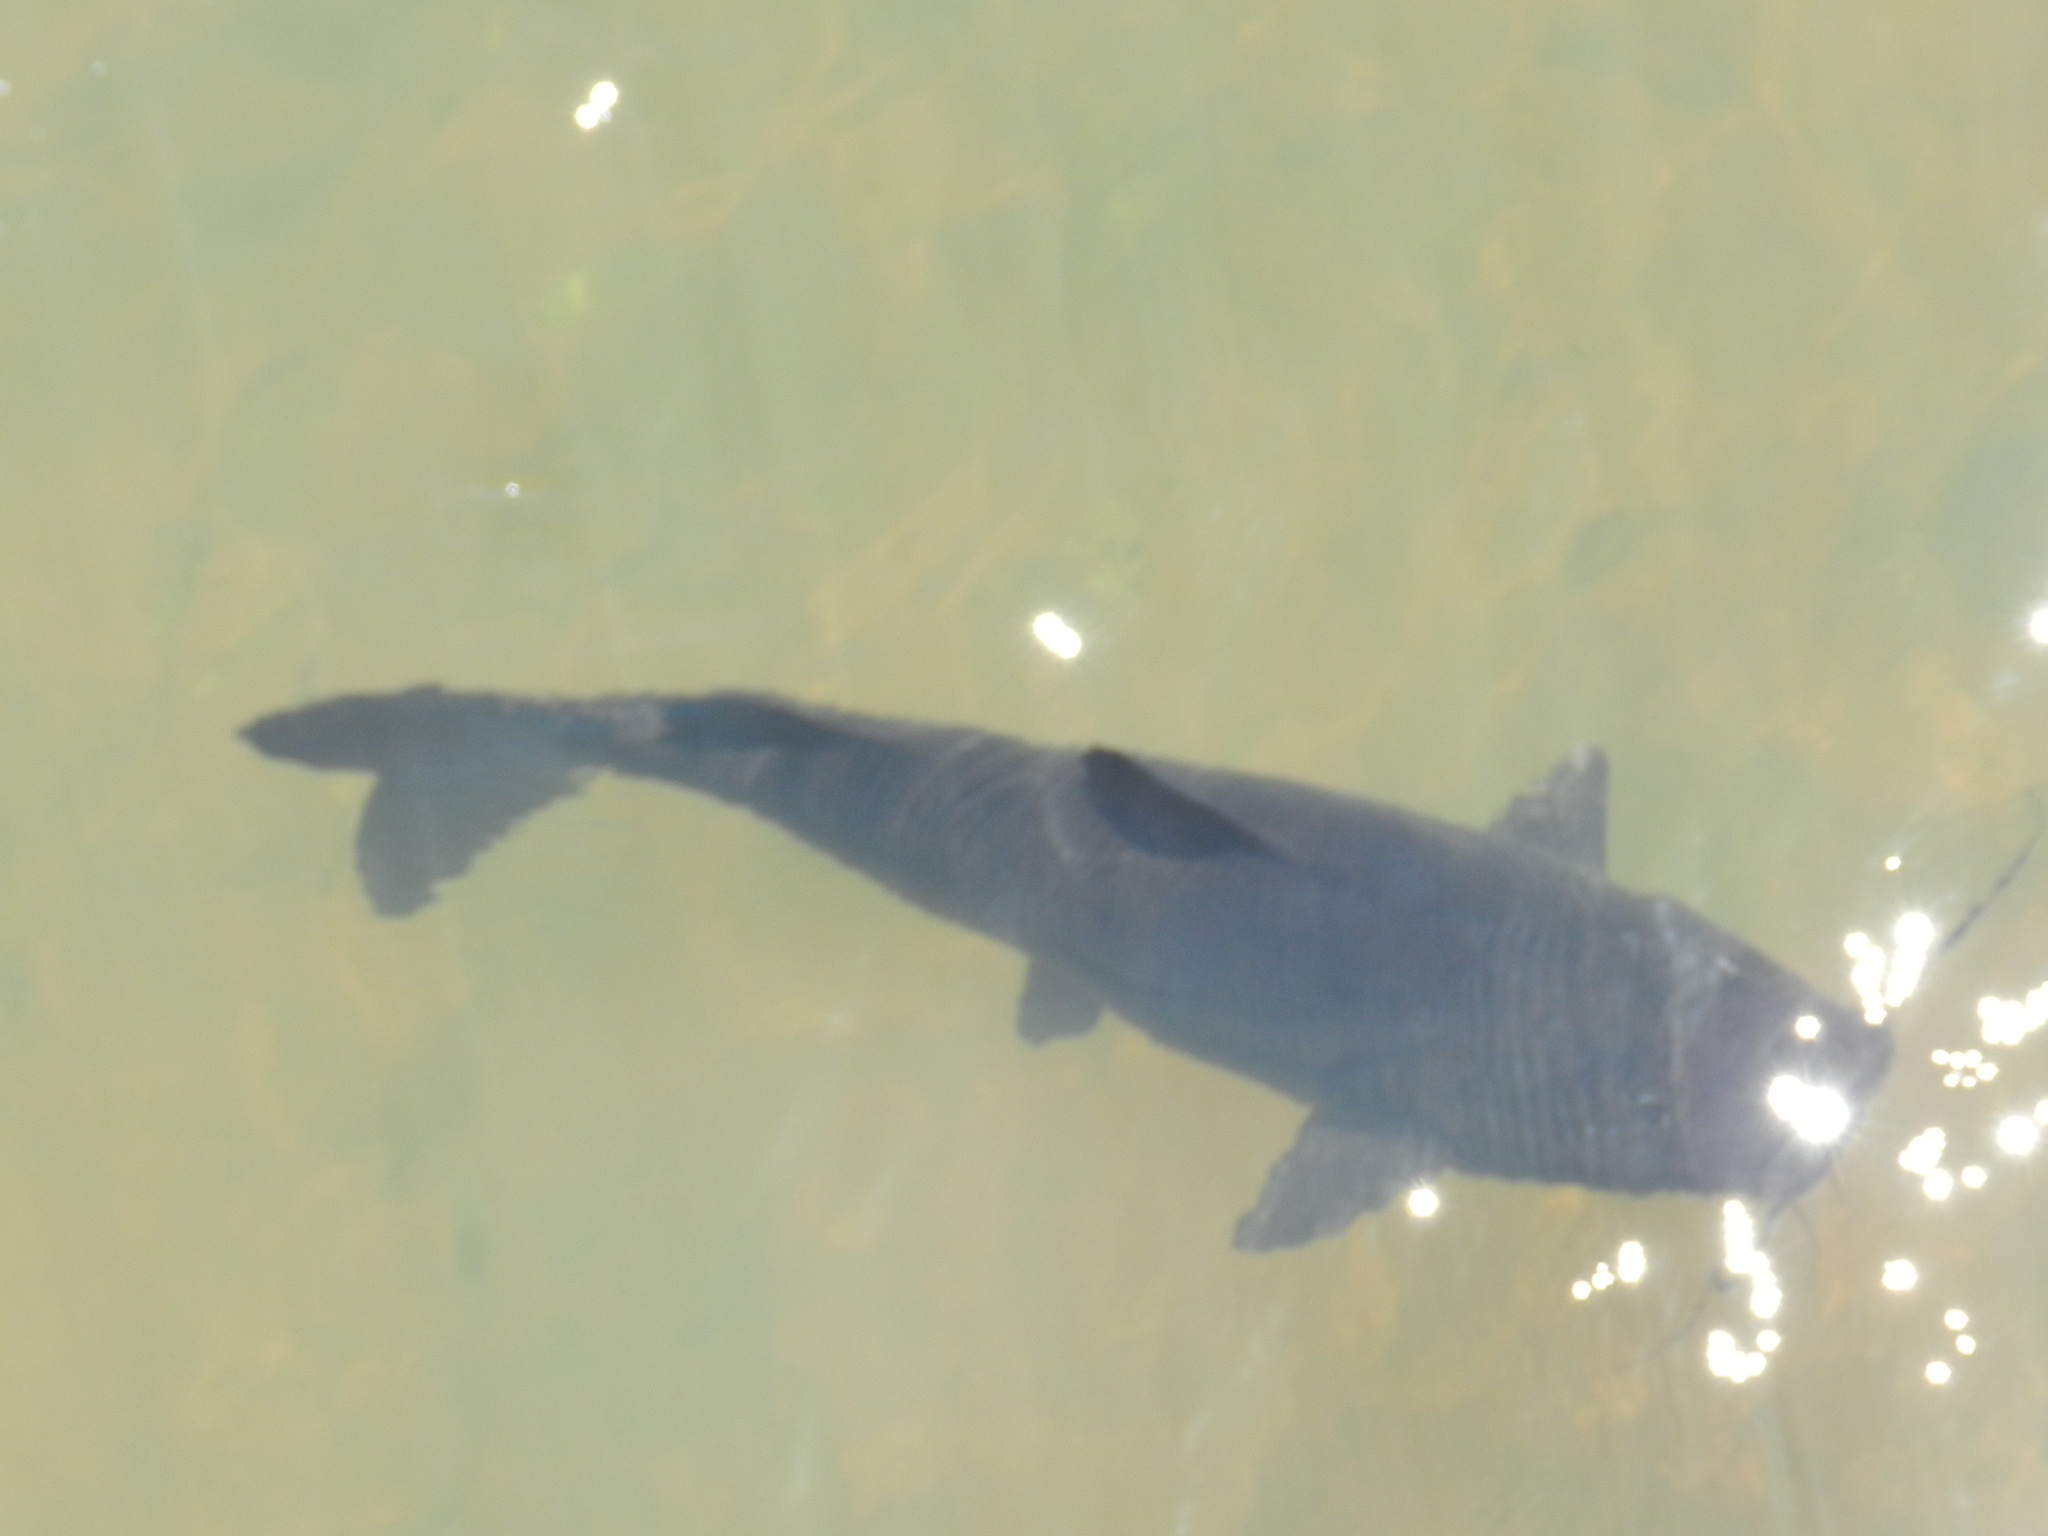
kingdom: Animalia
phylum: Chordata
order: Siluriformes
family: Pimelodidae
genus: Steindachneridion
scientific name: Steindachneridion melanodermatum
